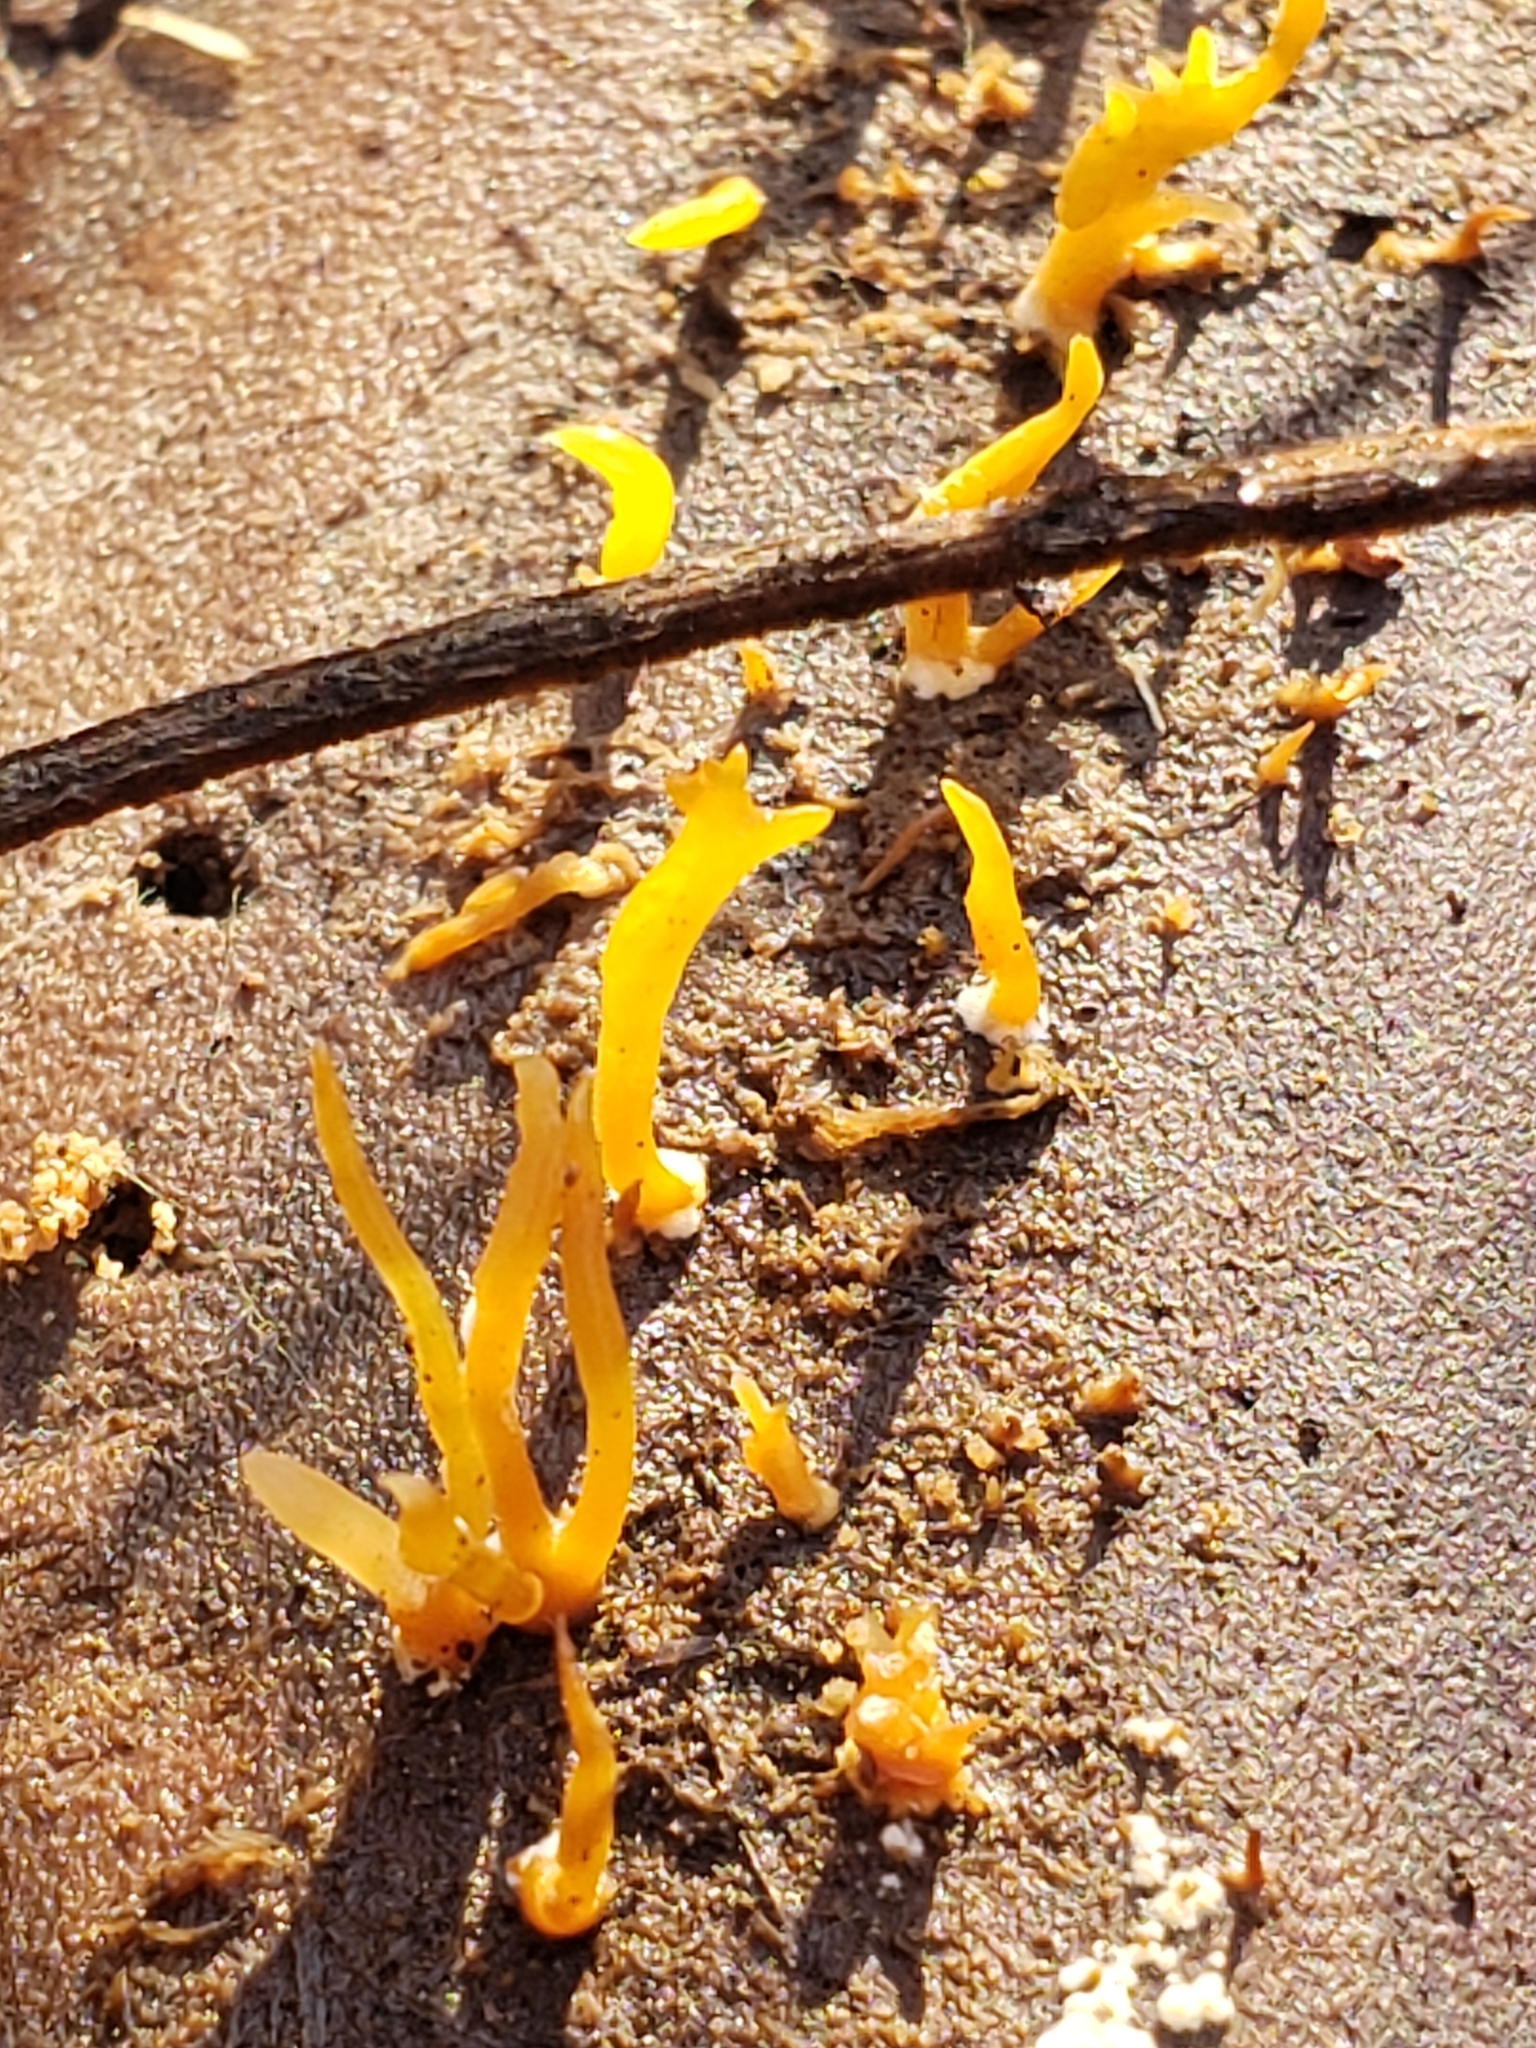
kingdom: Fungi
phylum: Basidiomycota
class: Dacrymycetes
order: Dacrymycetales
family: Dacrymycetaceae
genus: Calocera
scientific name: Calocera cornea
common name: Small stagshorn
